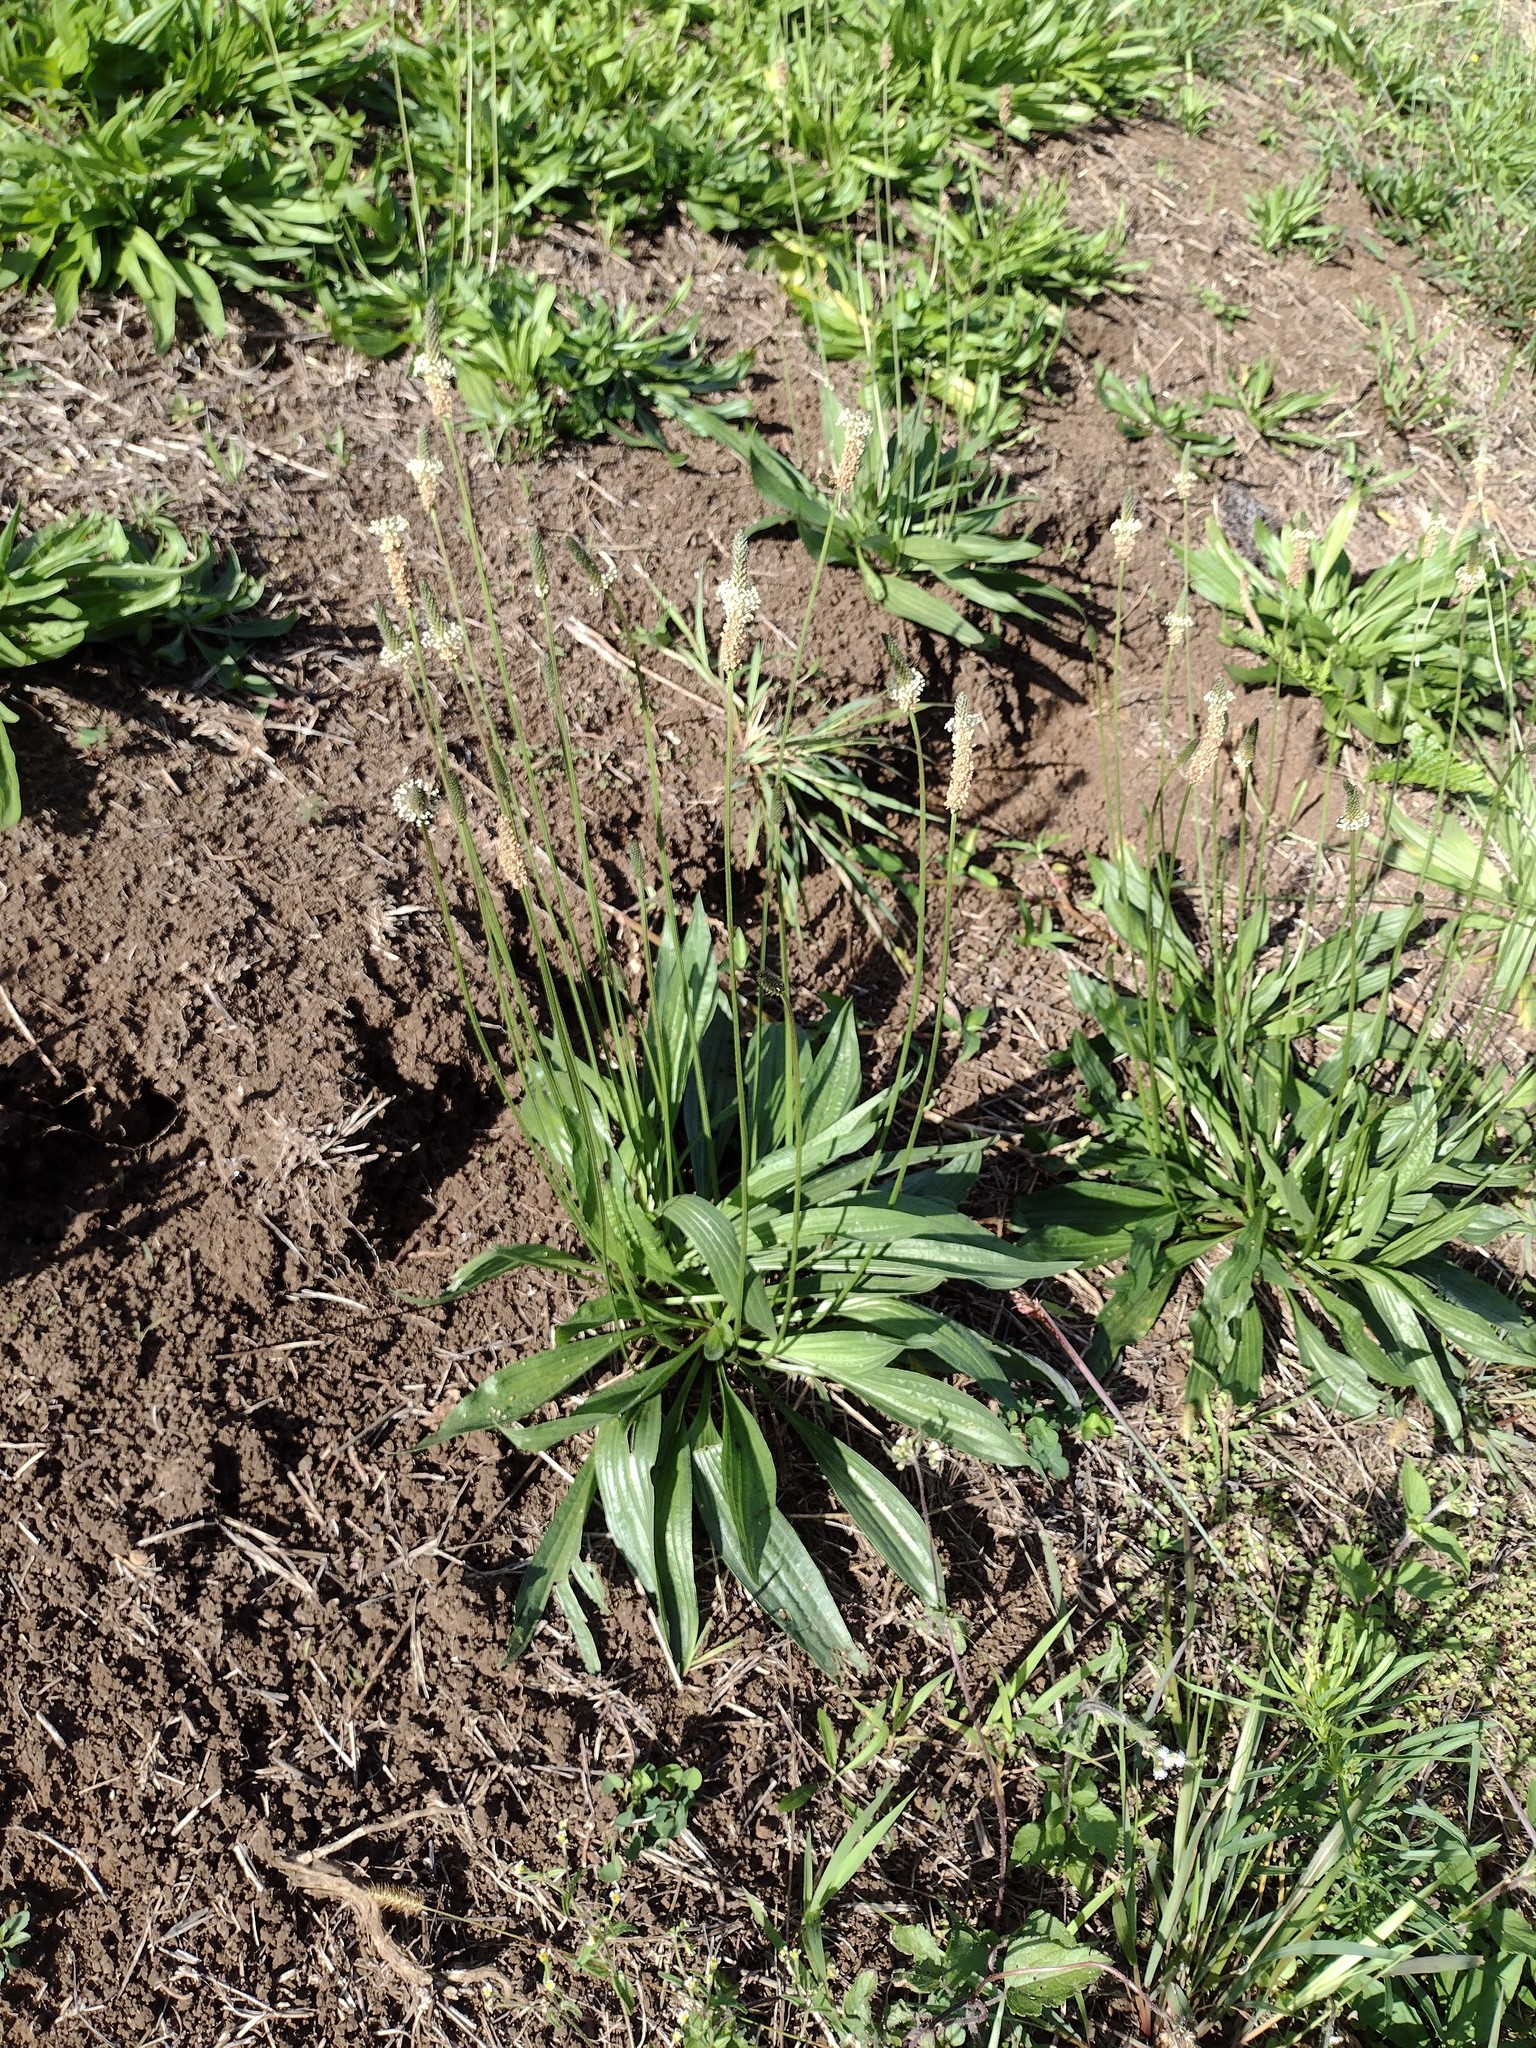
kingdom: Plantae
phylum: Tracheophyta
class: Magnoliopsida
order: Lamiales
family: Plantaginaceae
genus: Plantago
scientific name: Plantago lanceolata
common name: Ribwort plantain
